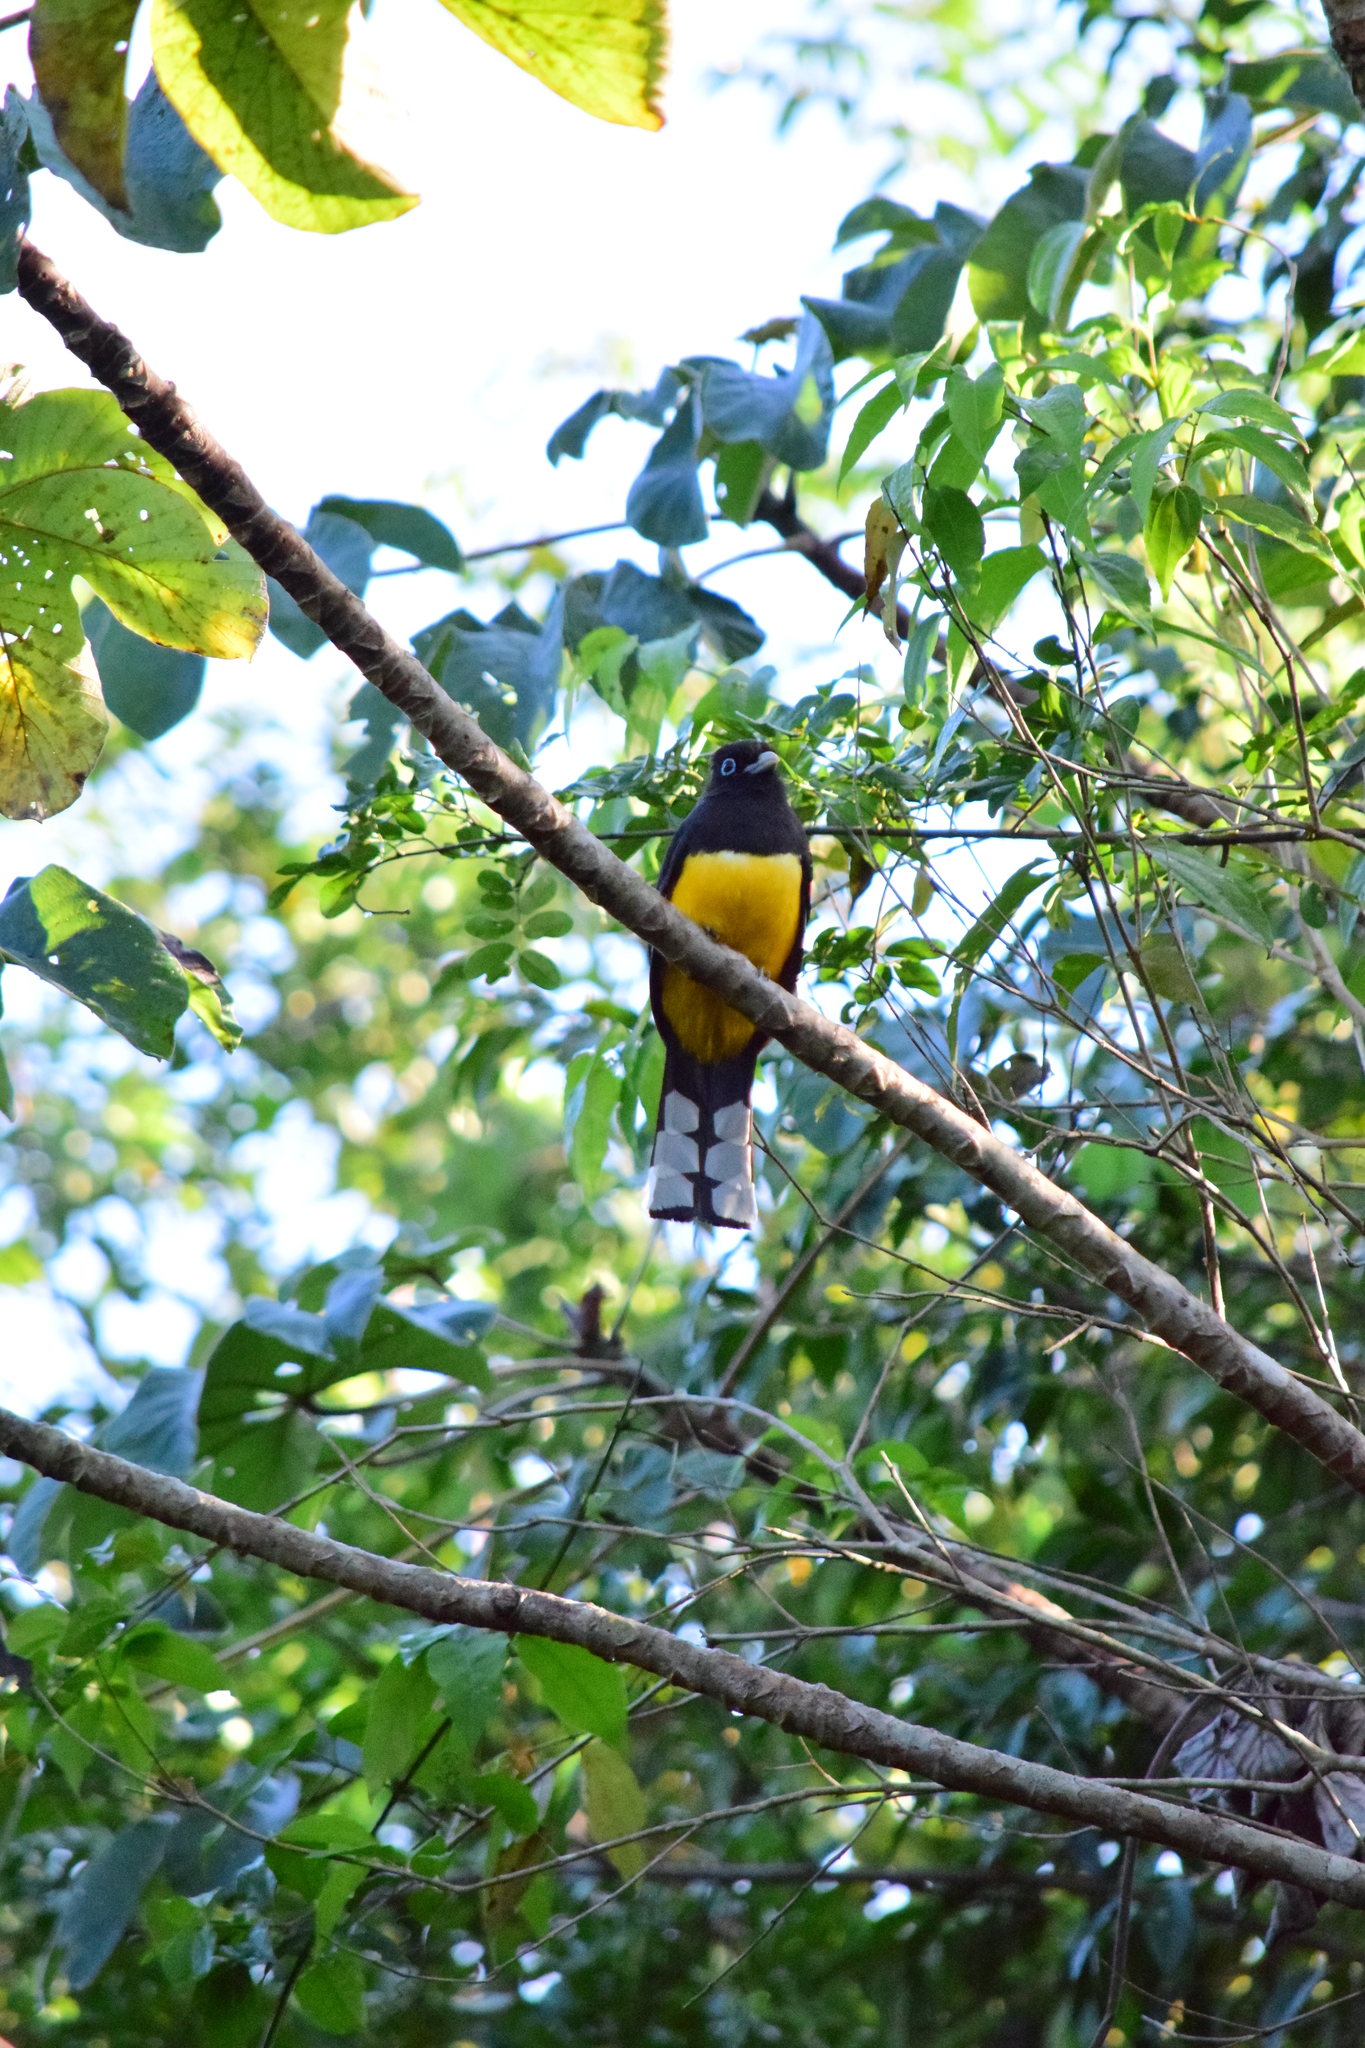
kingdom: Animalia
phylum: Chordata
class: Aves
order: Trogoniformes
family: Trogonidae
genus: Trogon
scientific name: Trogon melanocephalus
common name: Black-headed trogon
